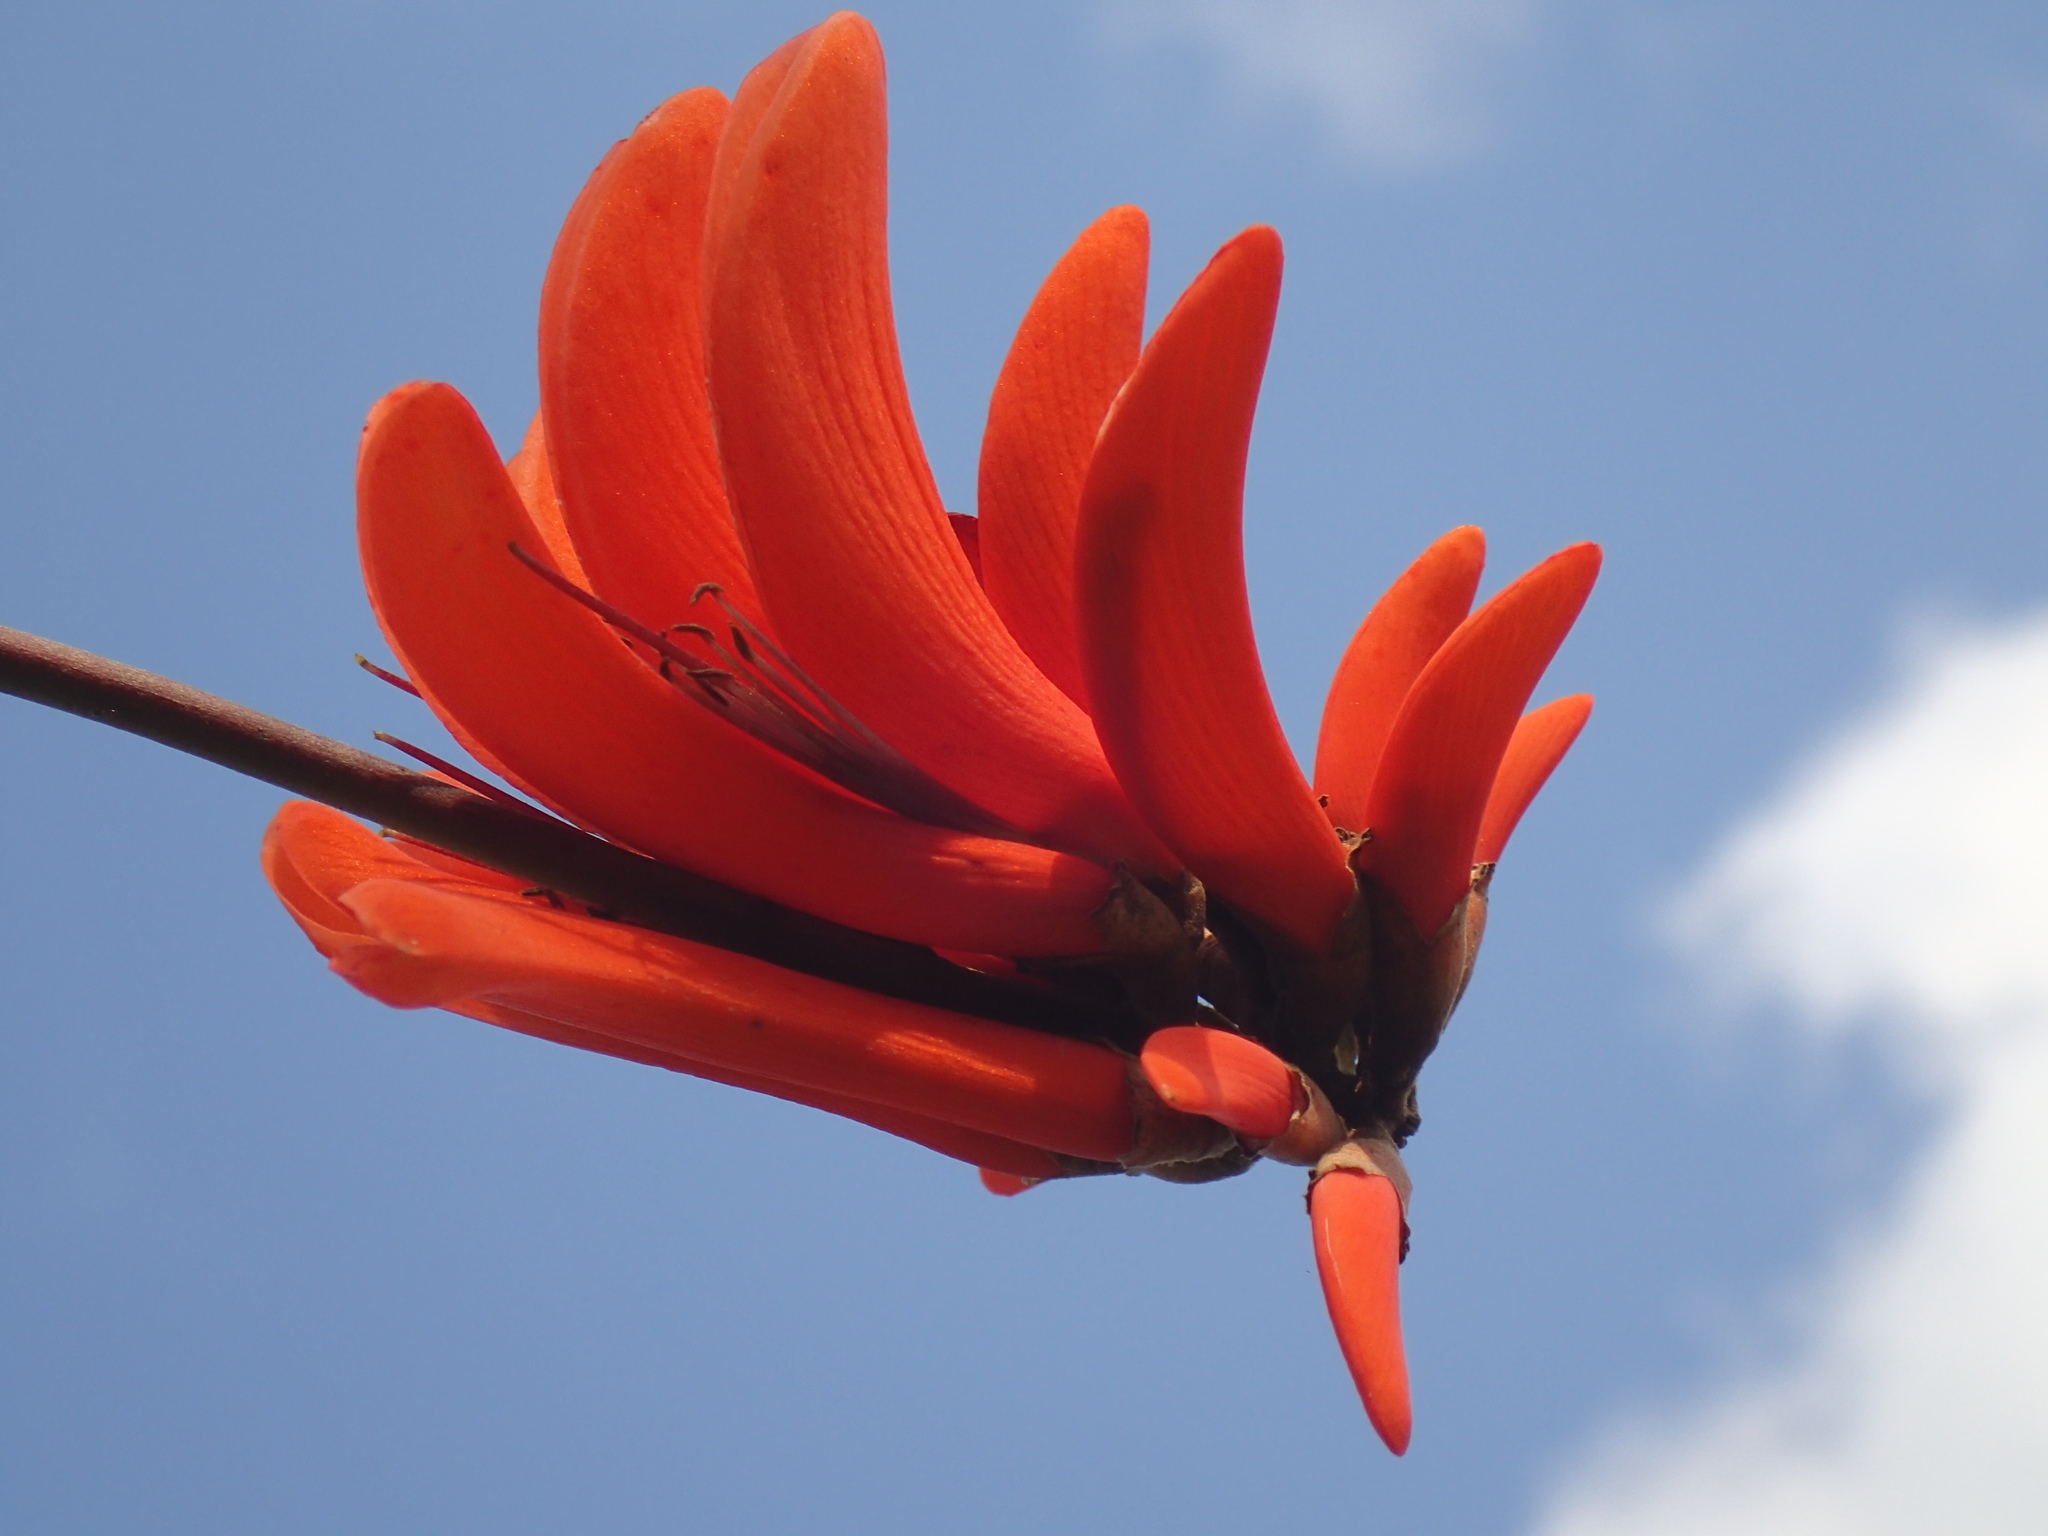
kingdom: Plantae
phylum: Tracheophyta
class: Magnoliopsida
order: Fabales
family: Fabaceae
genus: Erythrina
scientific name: Erythrina lysistemon
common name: Common coral tree
